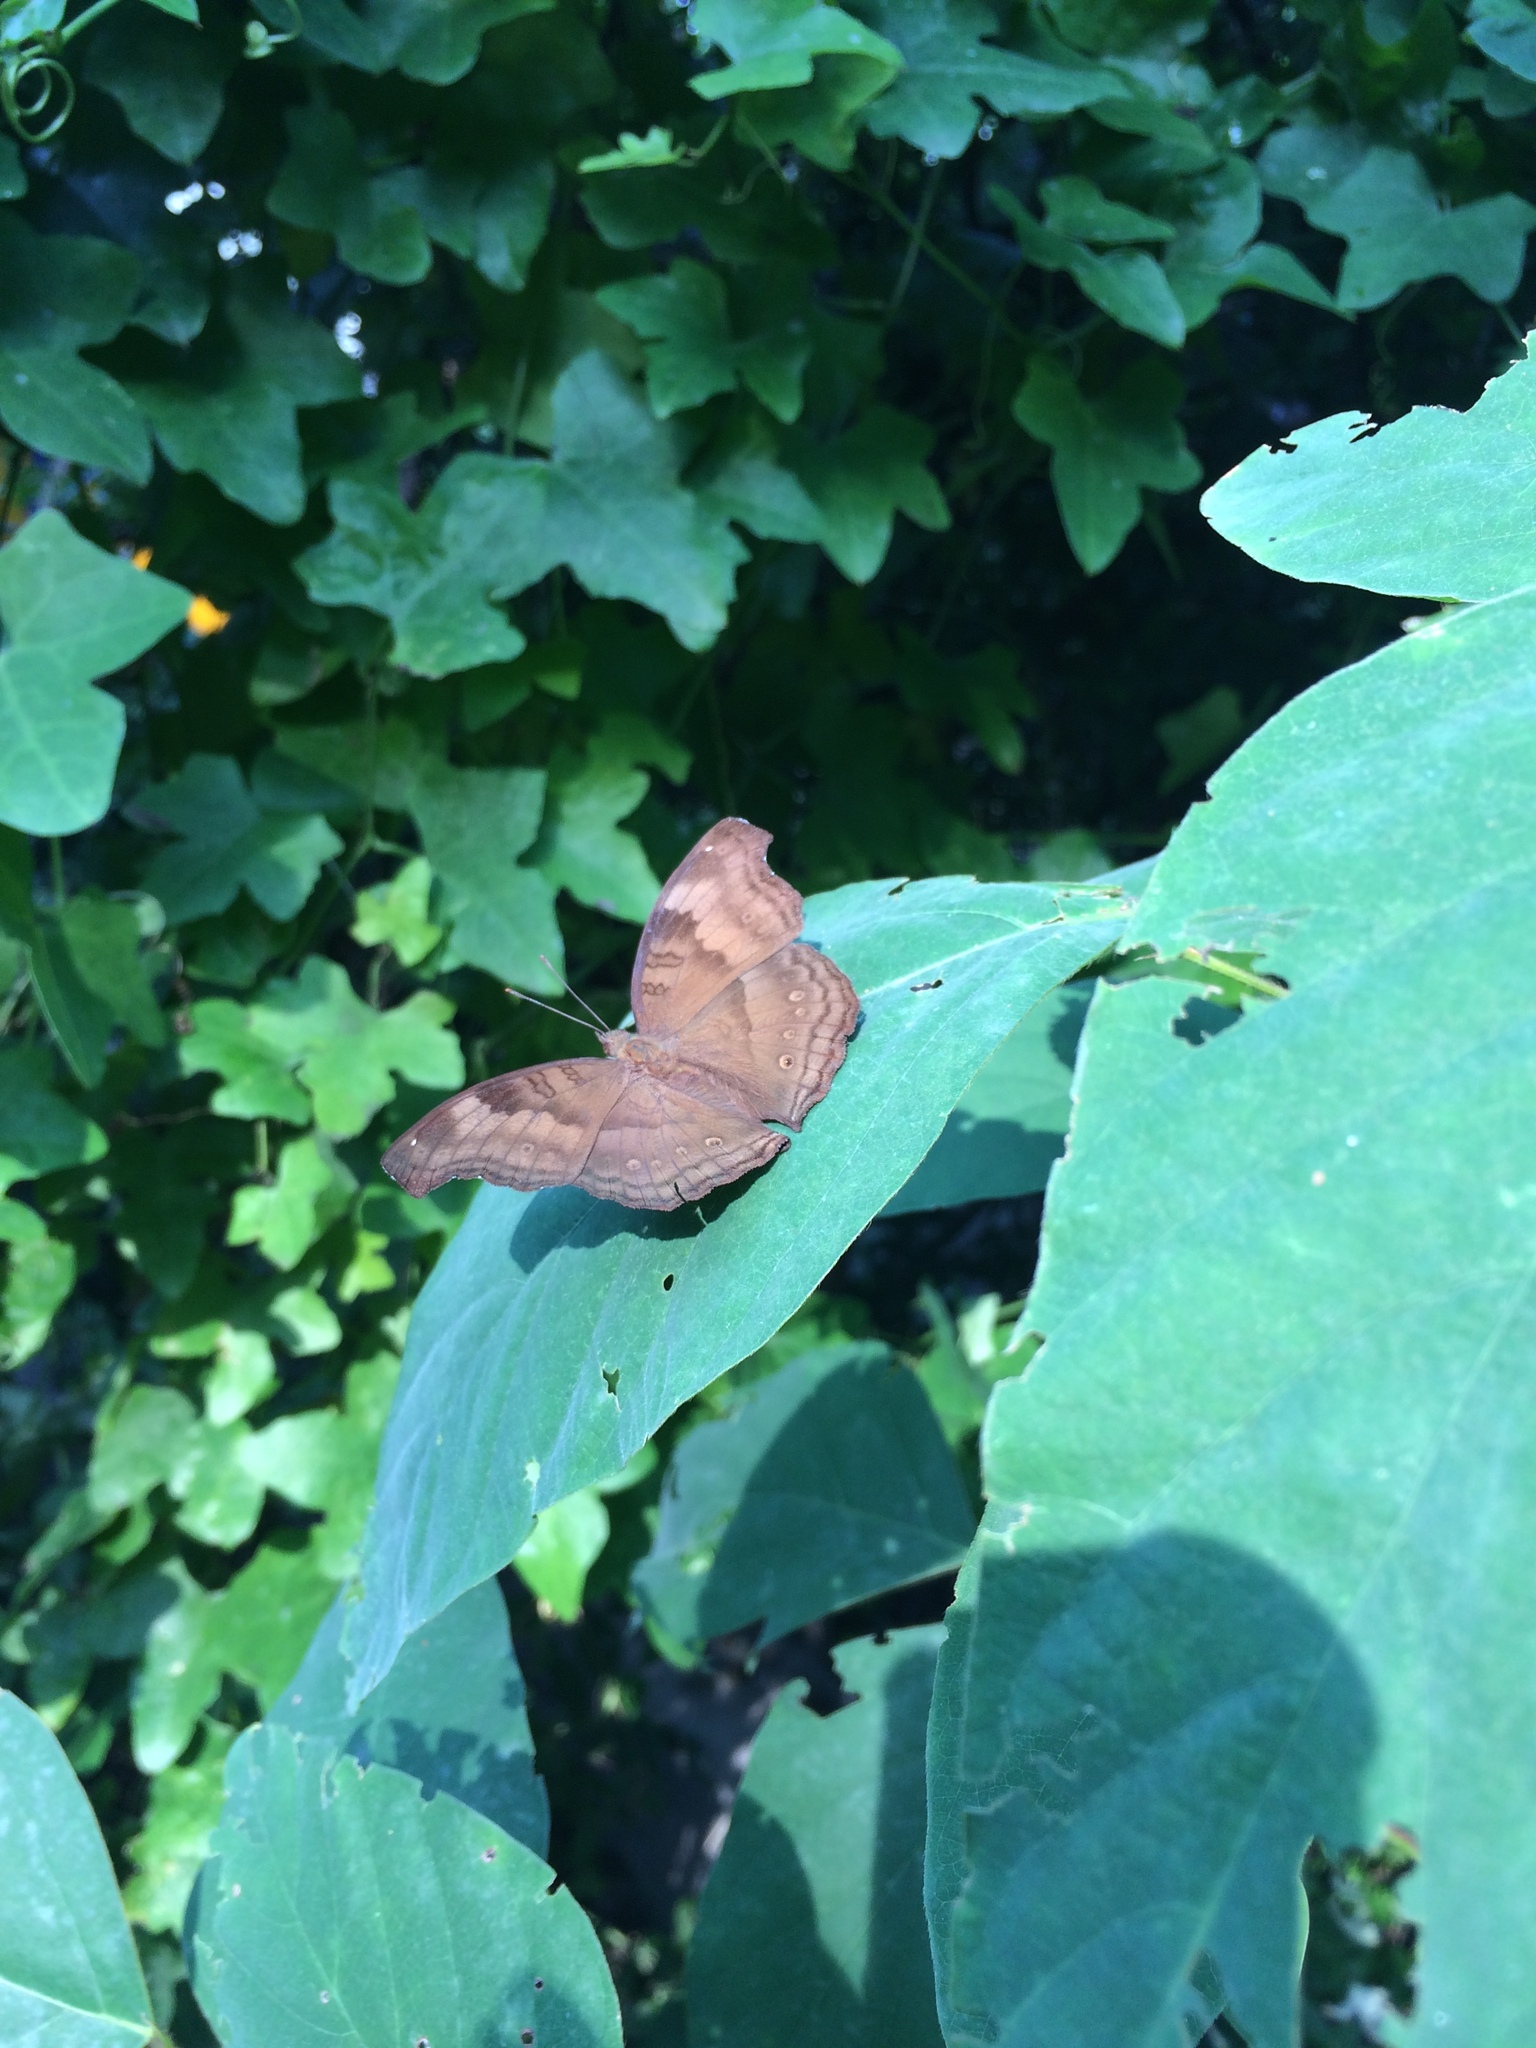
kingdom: Animalia
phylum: Arthropoda
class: Insecta
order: Lepidoptera
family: Nymphalidae
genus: Junonia
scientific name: Junonia iphita
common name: Chocolate pansy
